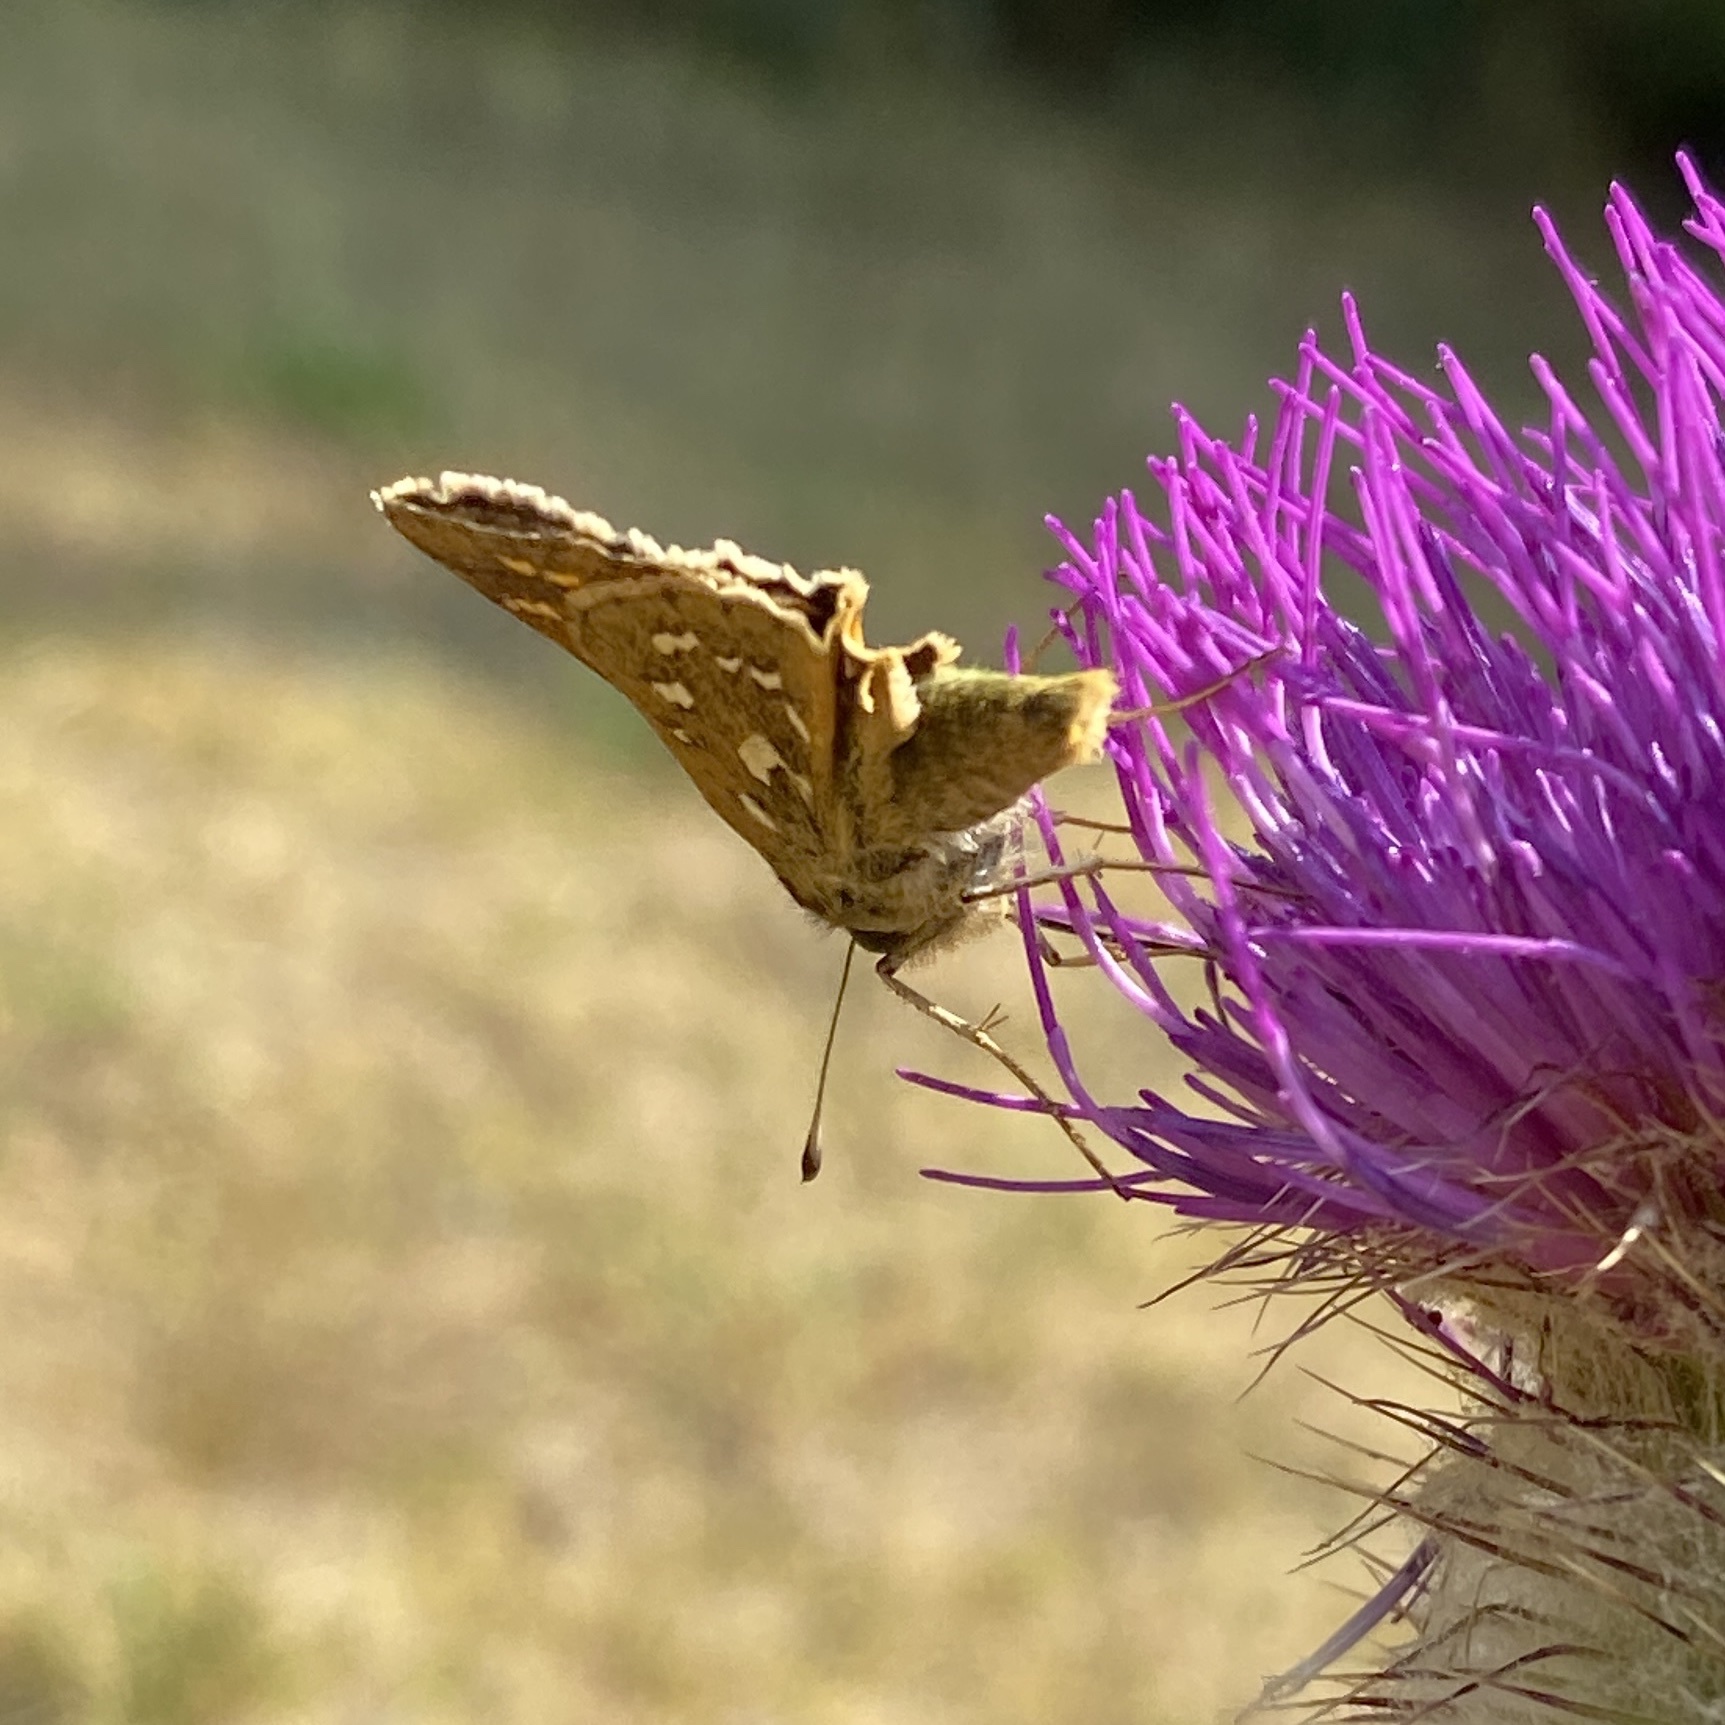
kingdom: Animalia
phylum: Arthropoda
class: Insecta
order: Lepidoptera
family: Hesperiidae
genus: Hesperia
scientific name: Hesperia comma
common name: Common branded skipper
